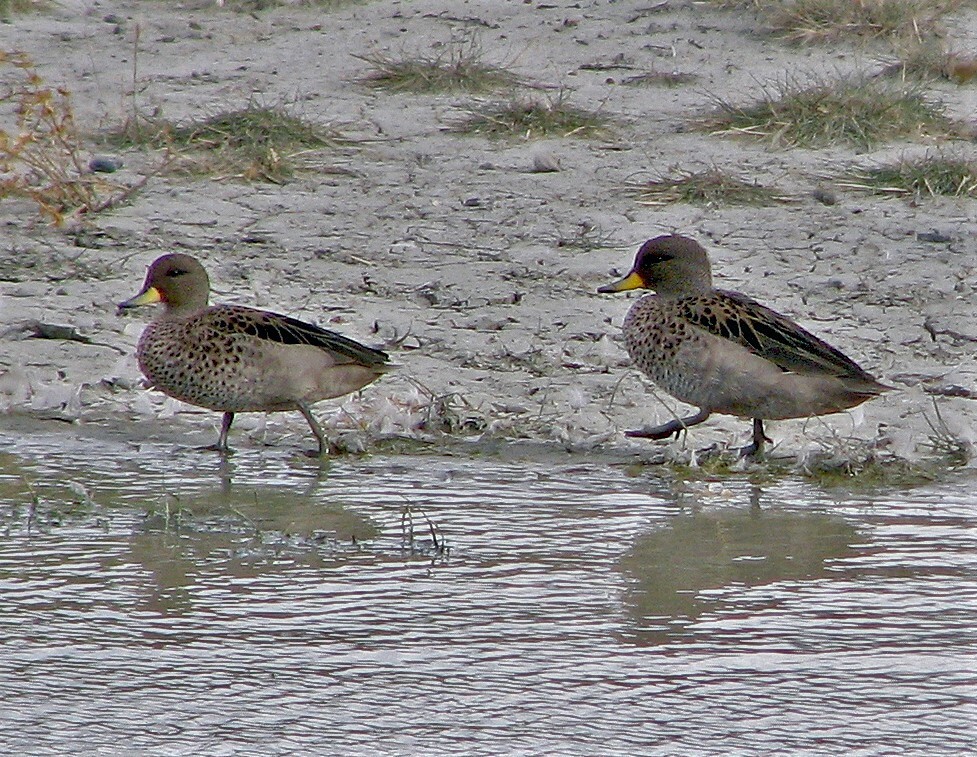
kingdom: Animalia
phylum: Chordata
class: Aves
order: Anseriformes
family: Anatidae
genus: Anas
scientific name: Anas flavirostris
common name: Yellow-billed teal
